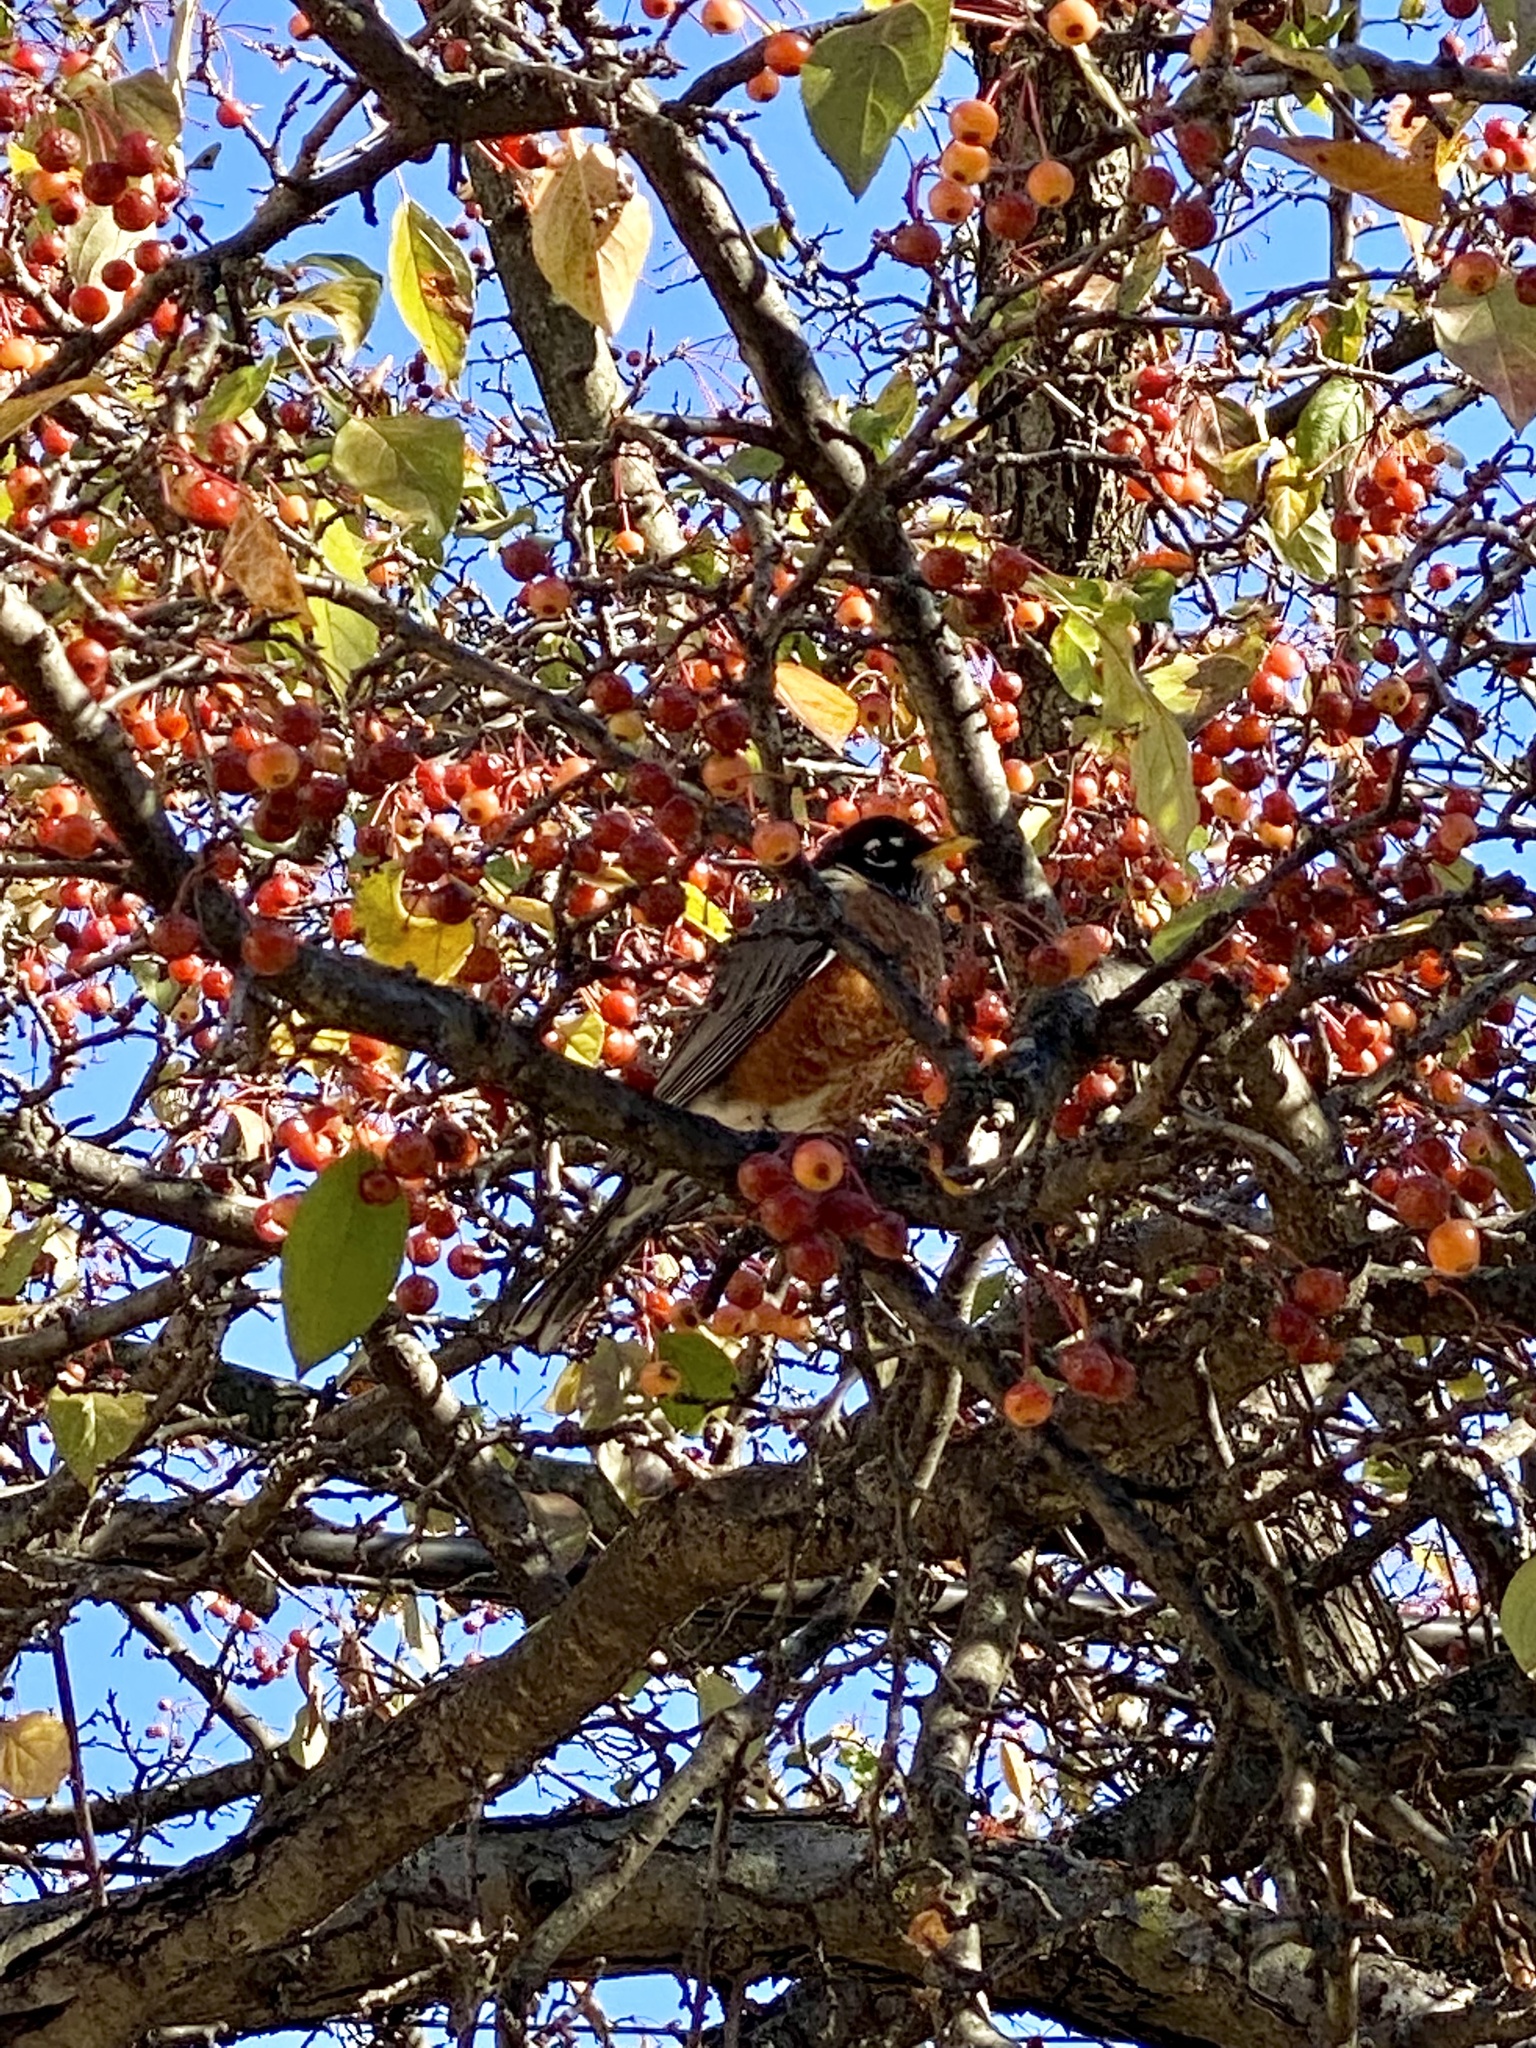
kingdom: Animalia
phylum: Chordata
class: Aves
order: Passeriformes
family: Turdidae
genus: Turdus
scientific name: Turdus migratorius
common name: American robin
